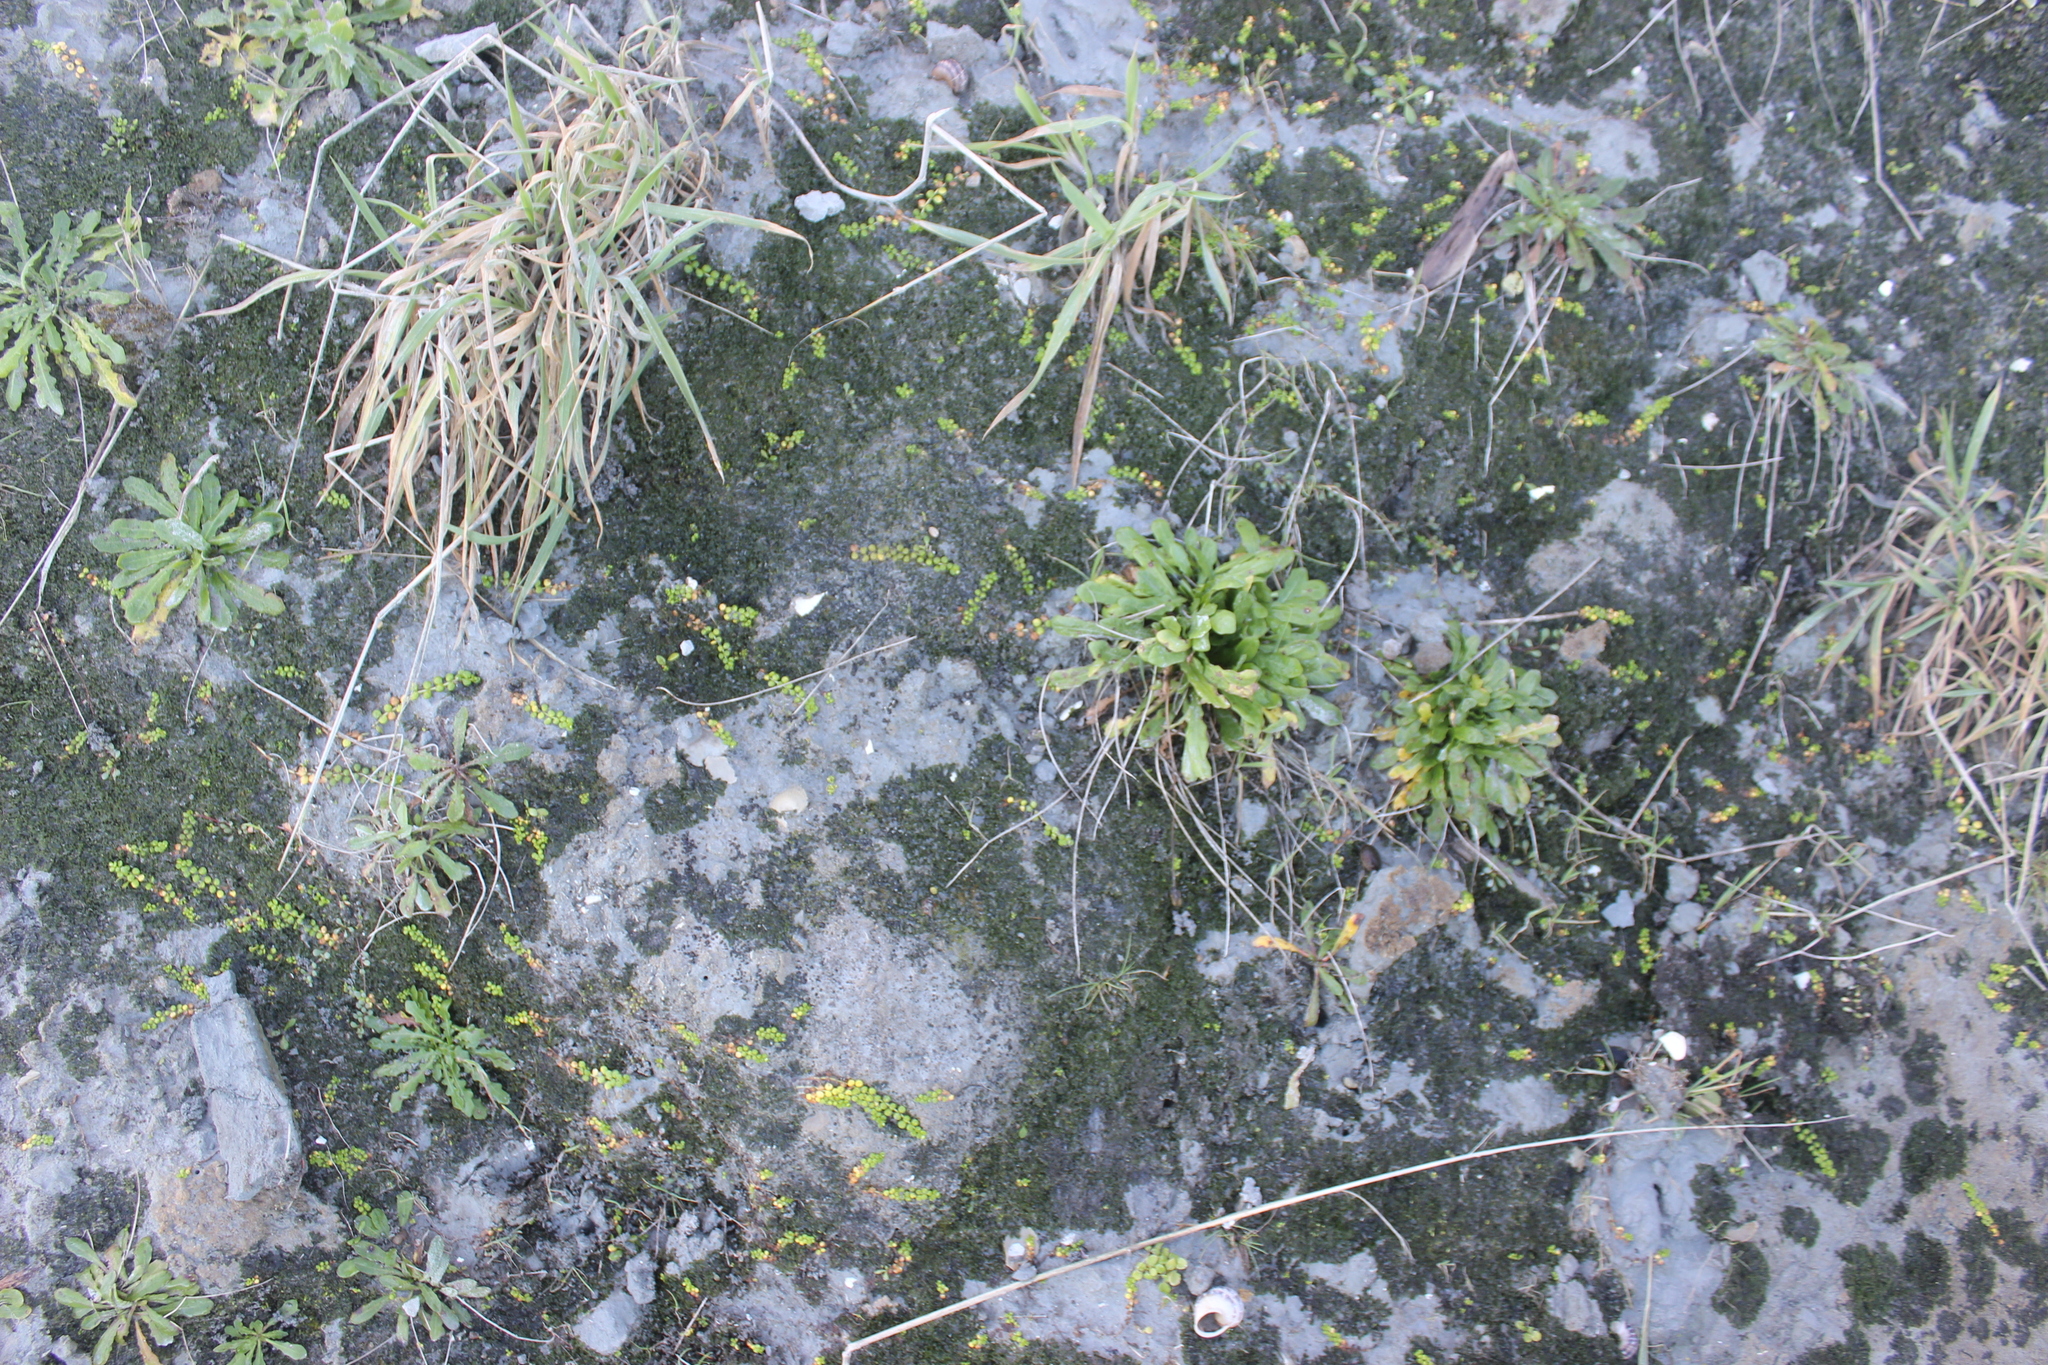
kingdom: Plantae
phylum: Tracheophyta
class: Magnoliopsida
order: Myrtales
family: Onagraceae
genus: Epilobium
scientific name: Epilobium komarovianum
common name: Bronzy willowherb
